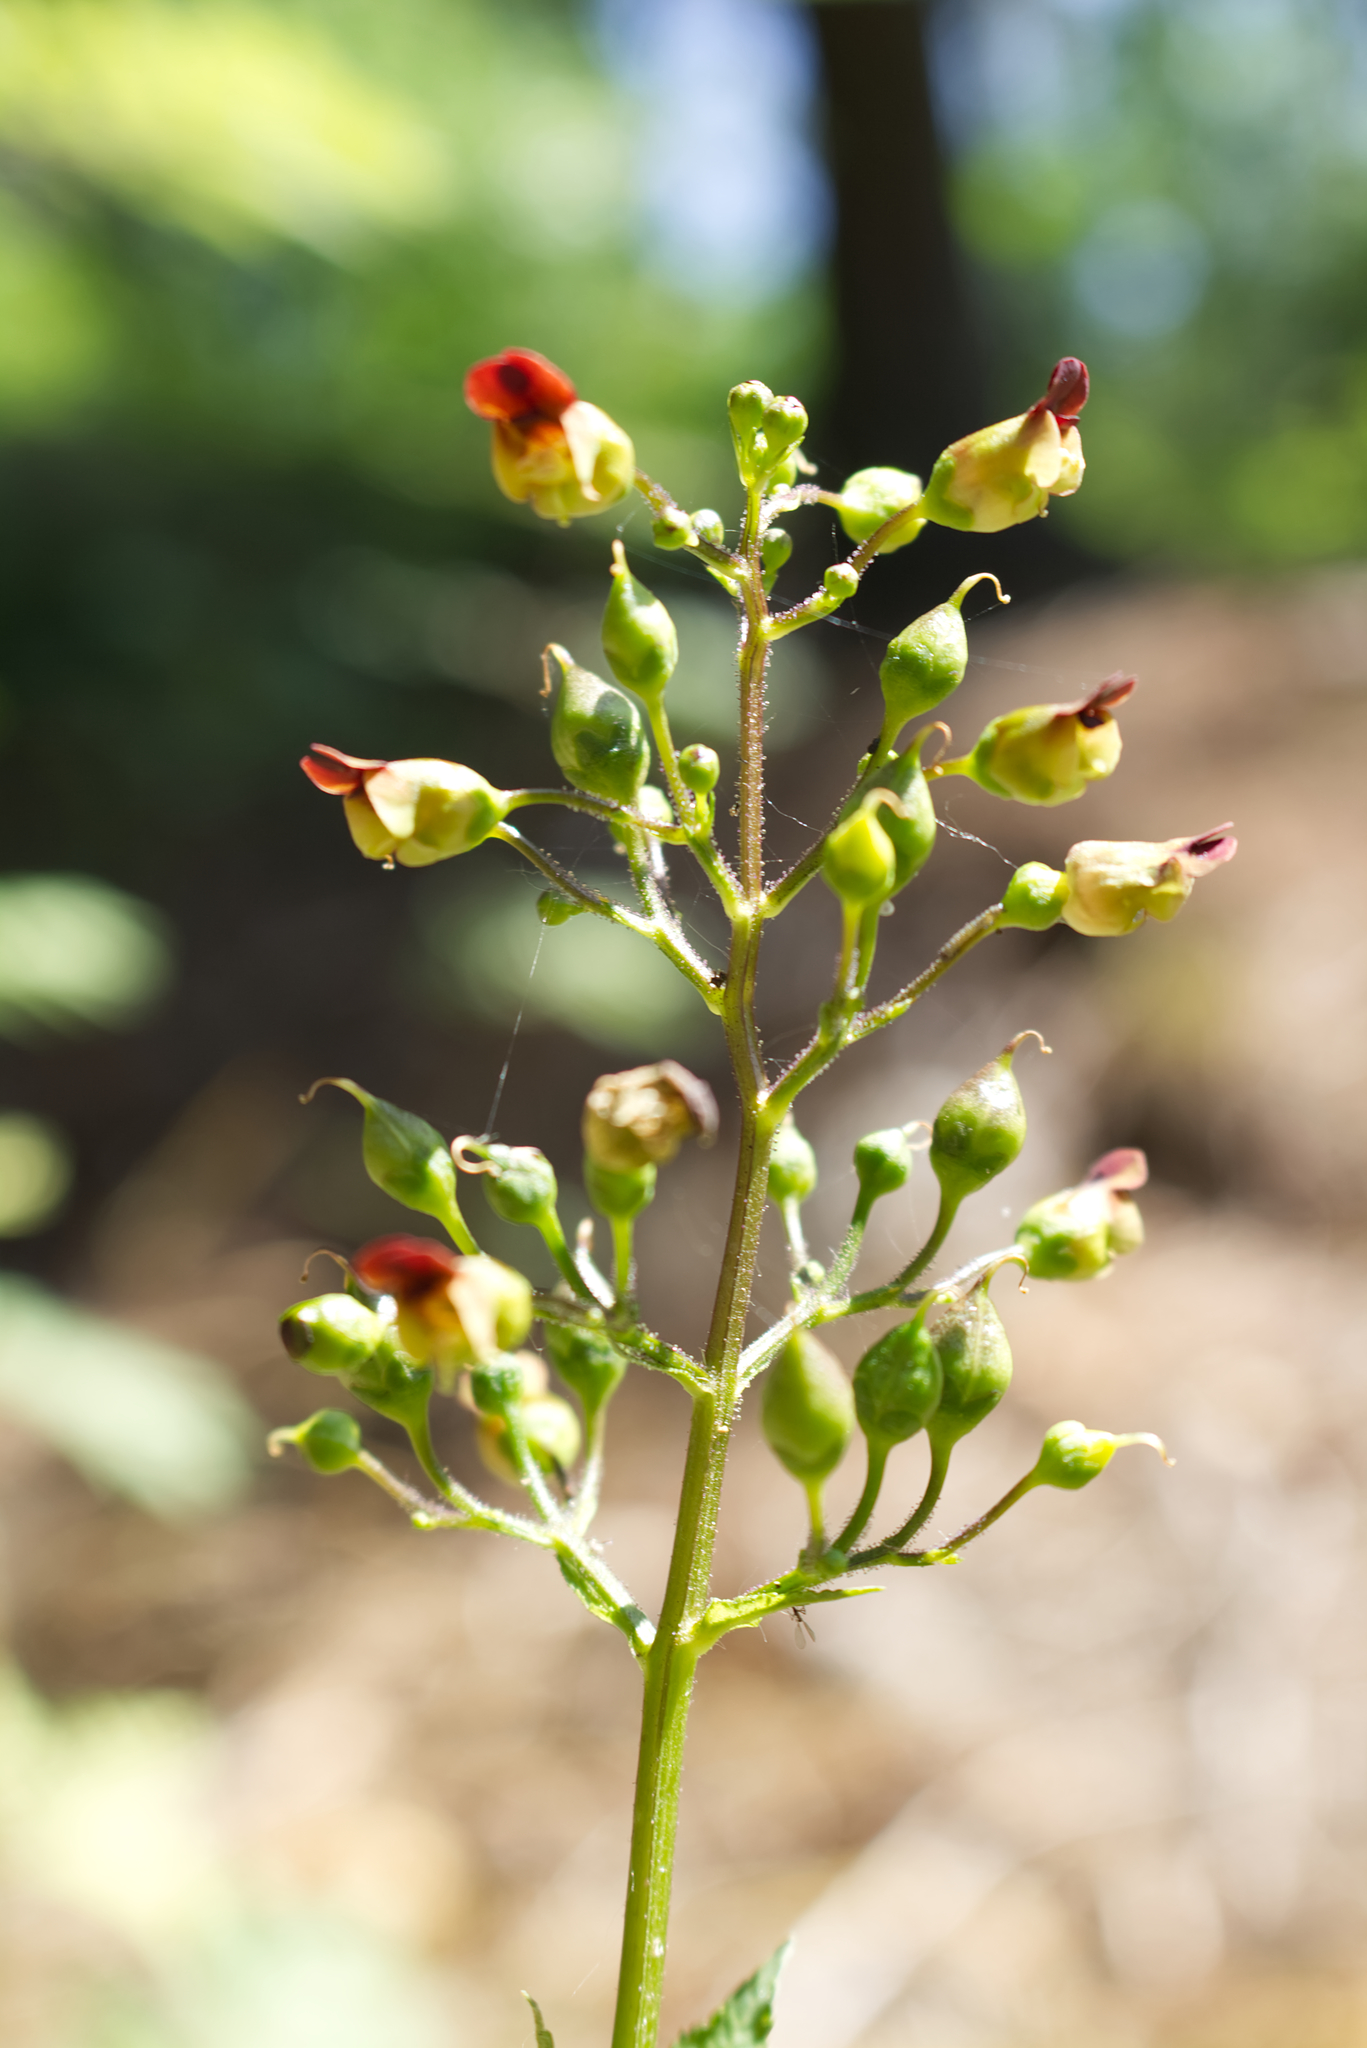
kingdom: Plantae
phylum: Tracheophyta
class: Magnoliopsida
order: Lamiales
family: Scrophulariaceae
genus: Scrophularia
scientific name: Scrophularia nodosa
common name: Common figwort
